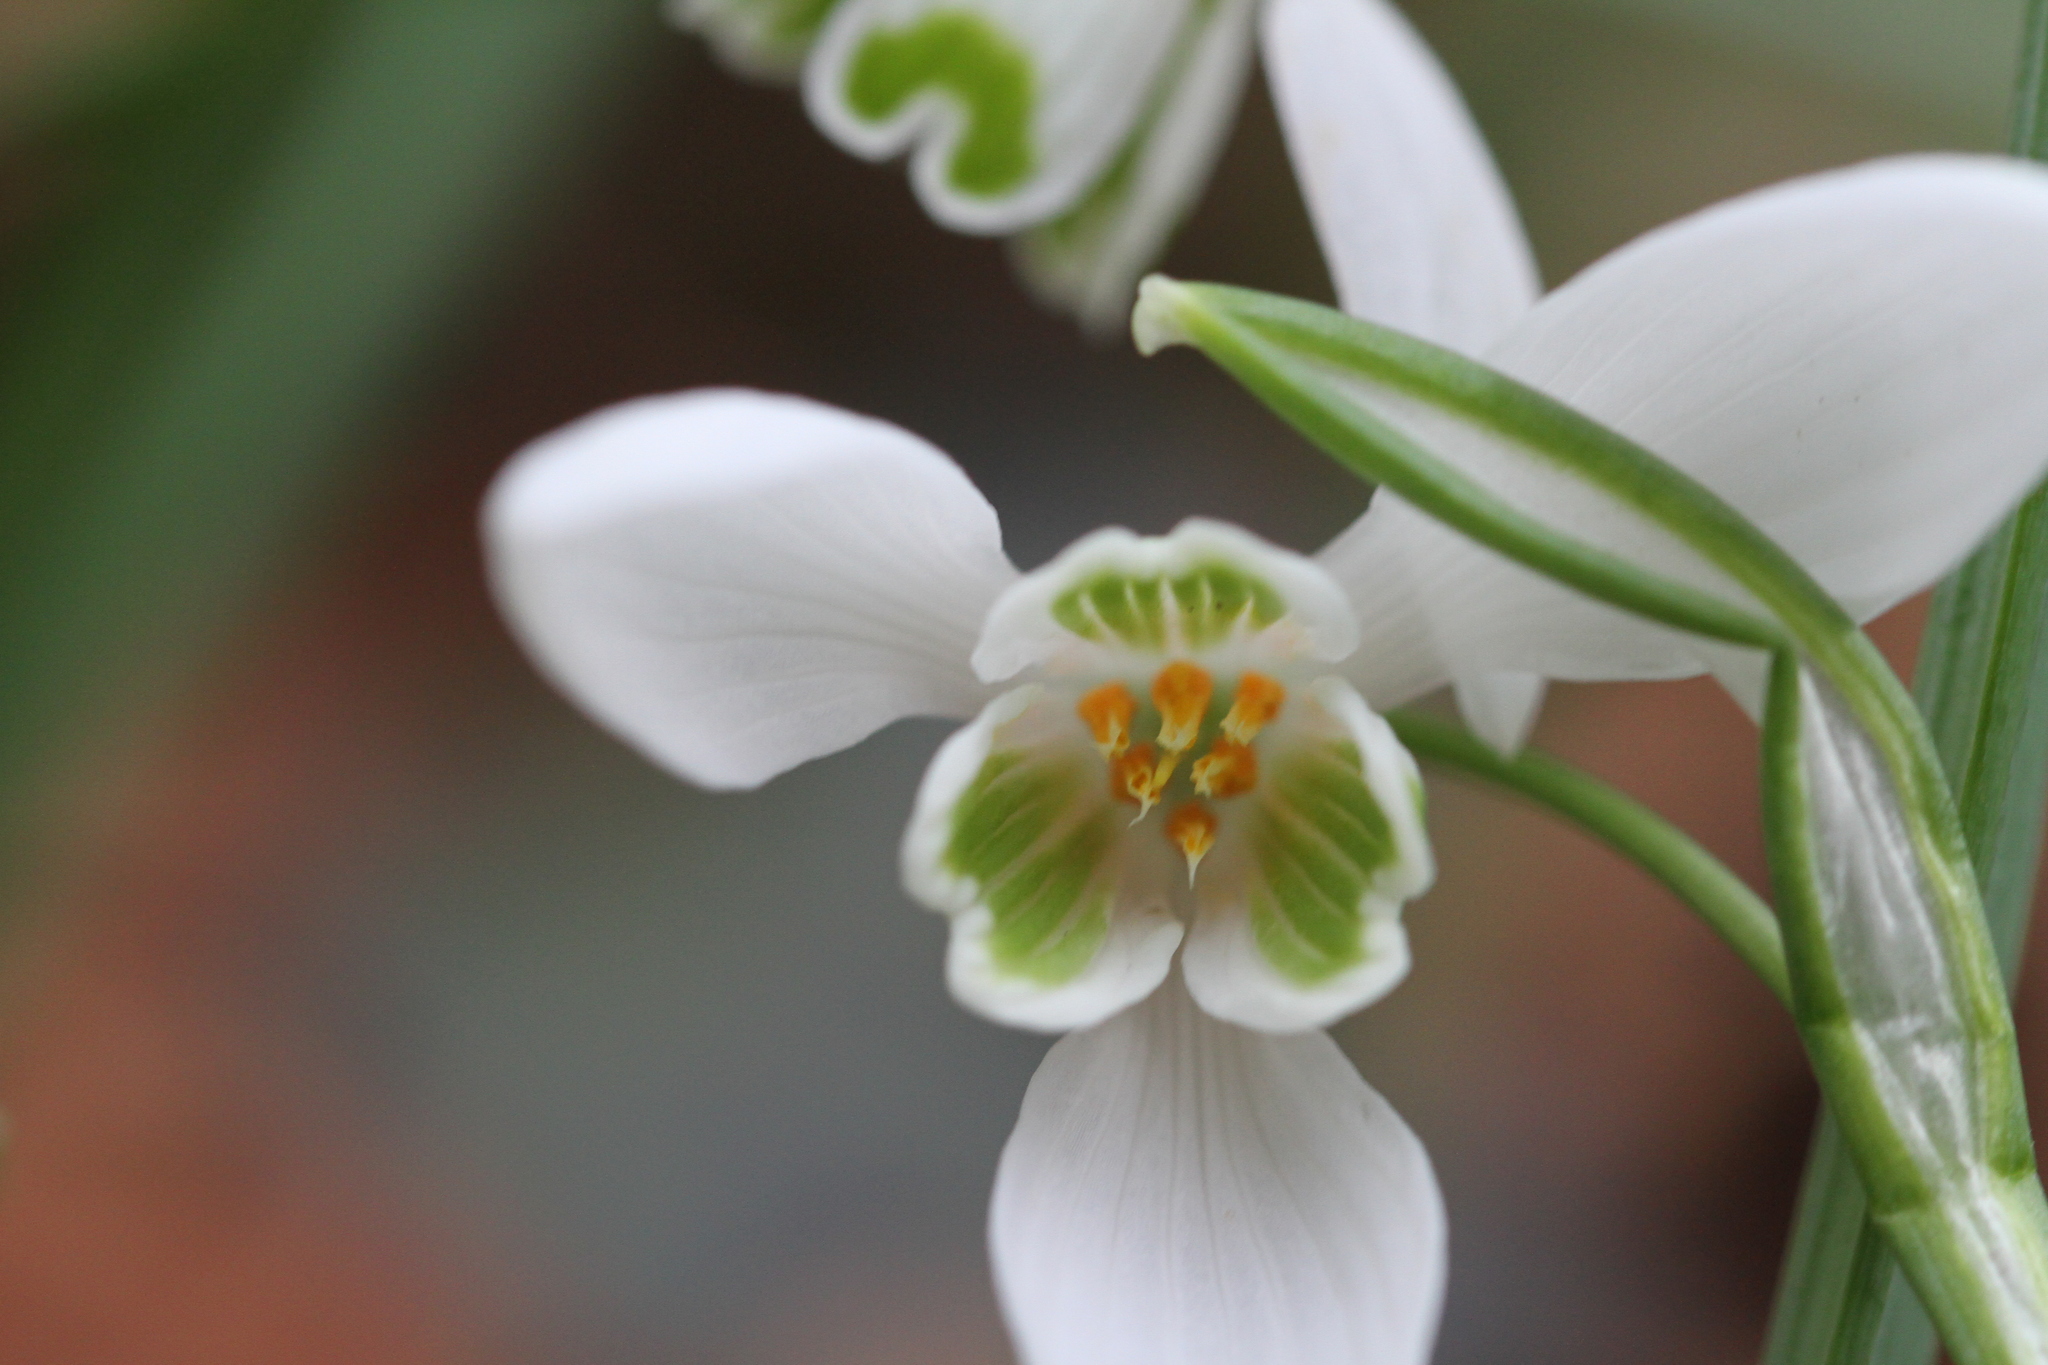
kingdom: Plantae
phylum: Tracheophyta
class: Liliopsida
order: Asparagales
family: Amaryllidaceae
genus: Galanthus
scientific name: Galanthus nivalis
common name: Snowdrop
